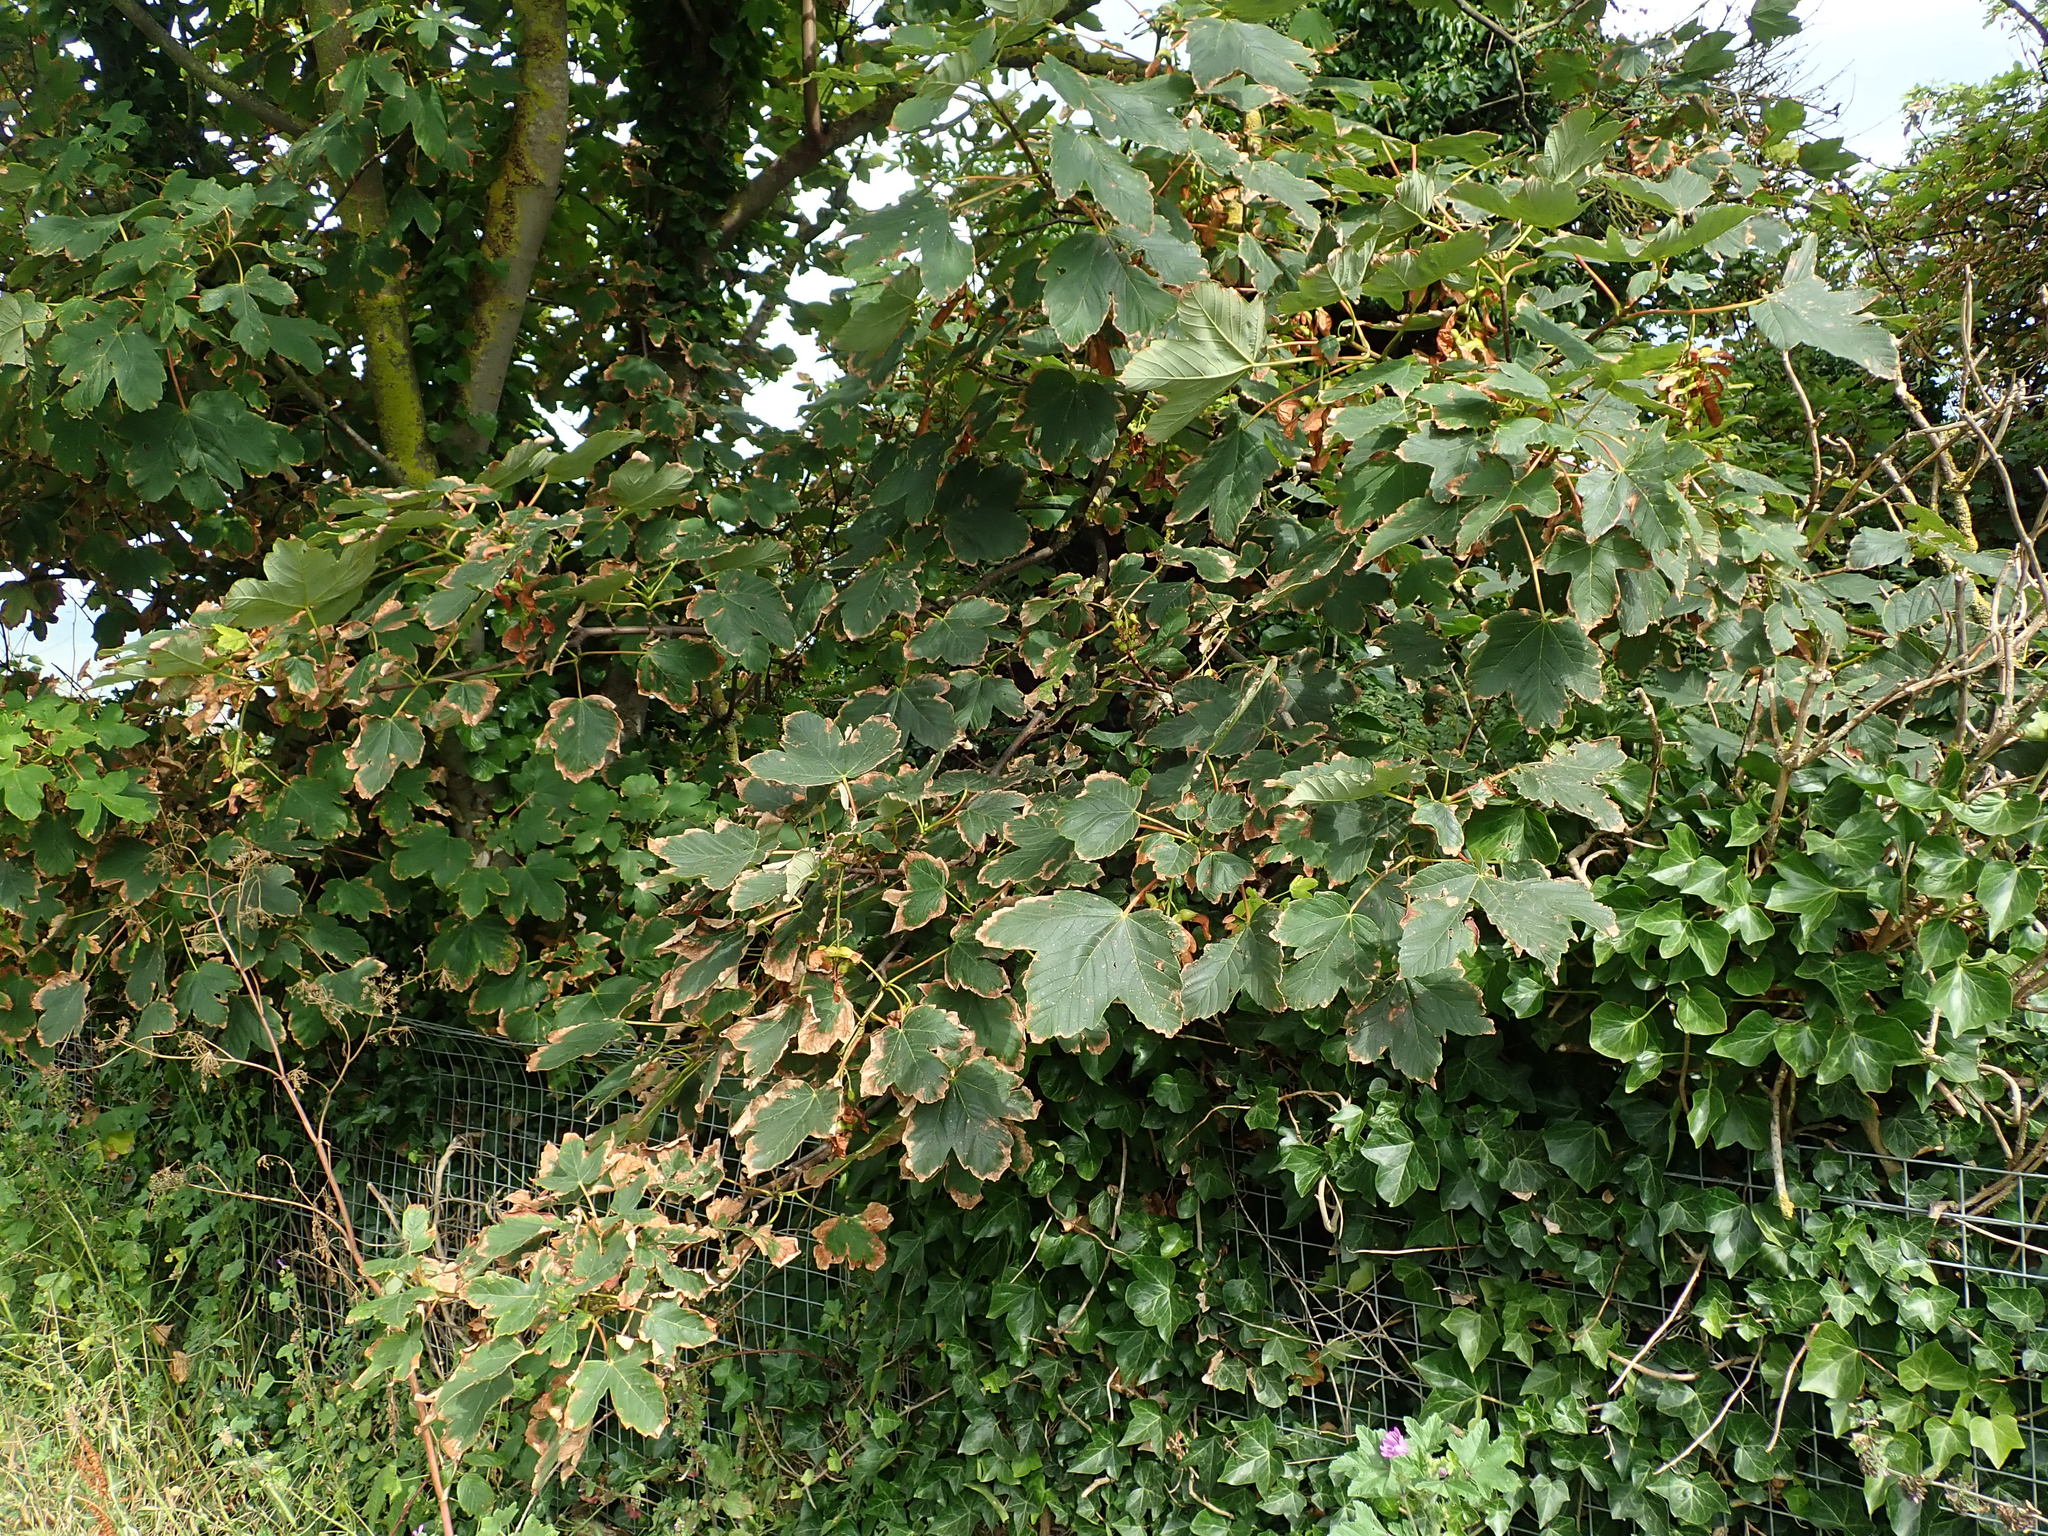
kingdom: Plantae
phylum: Tracheophyta
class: Magnoliopsida
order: Sapindales
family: Sapindaceae
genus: Acer
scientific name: Acer pseudoplatanus
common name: Sycamore
